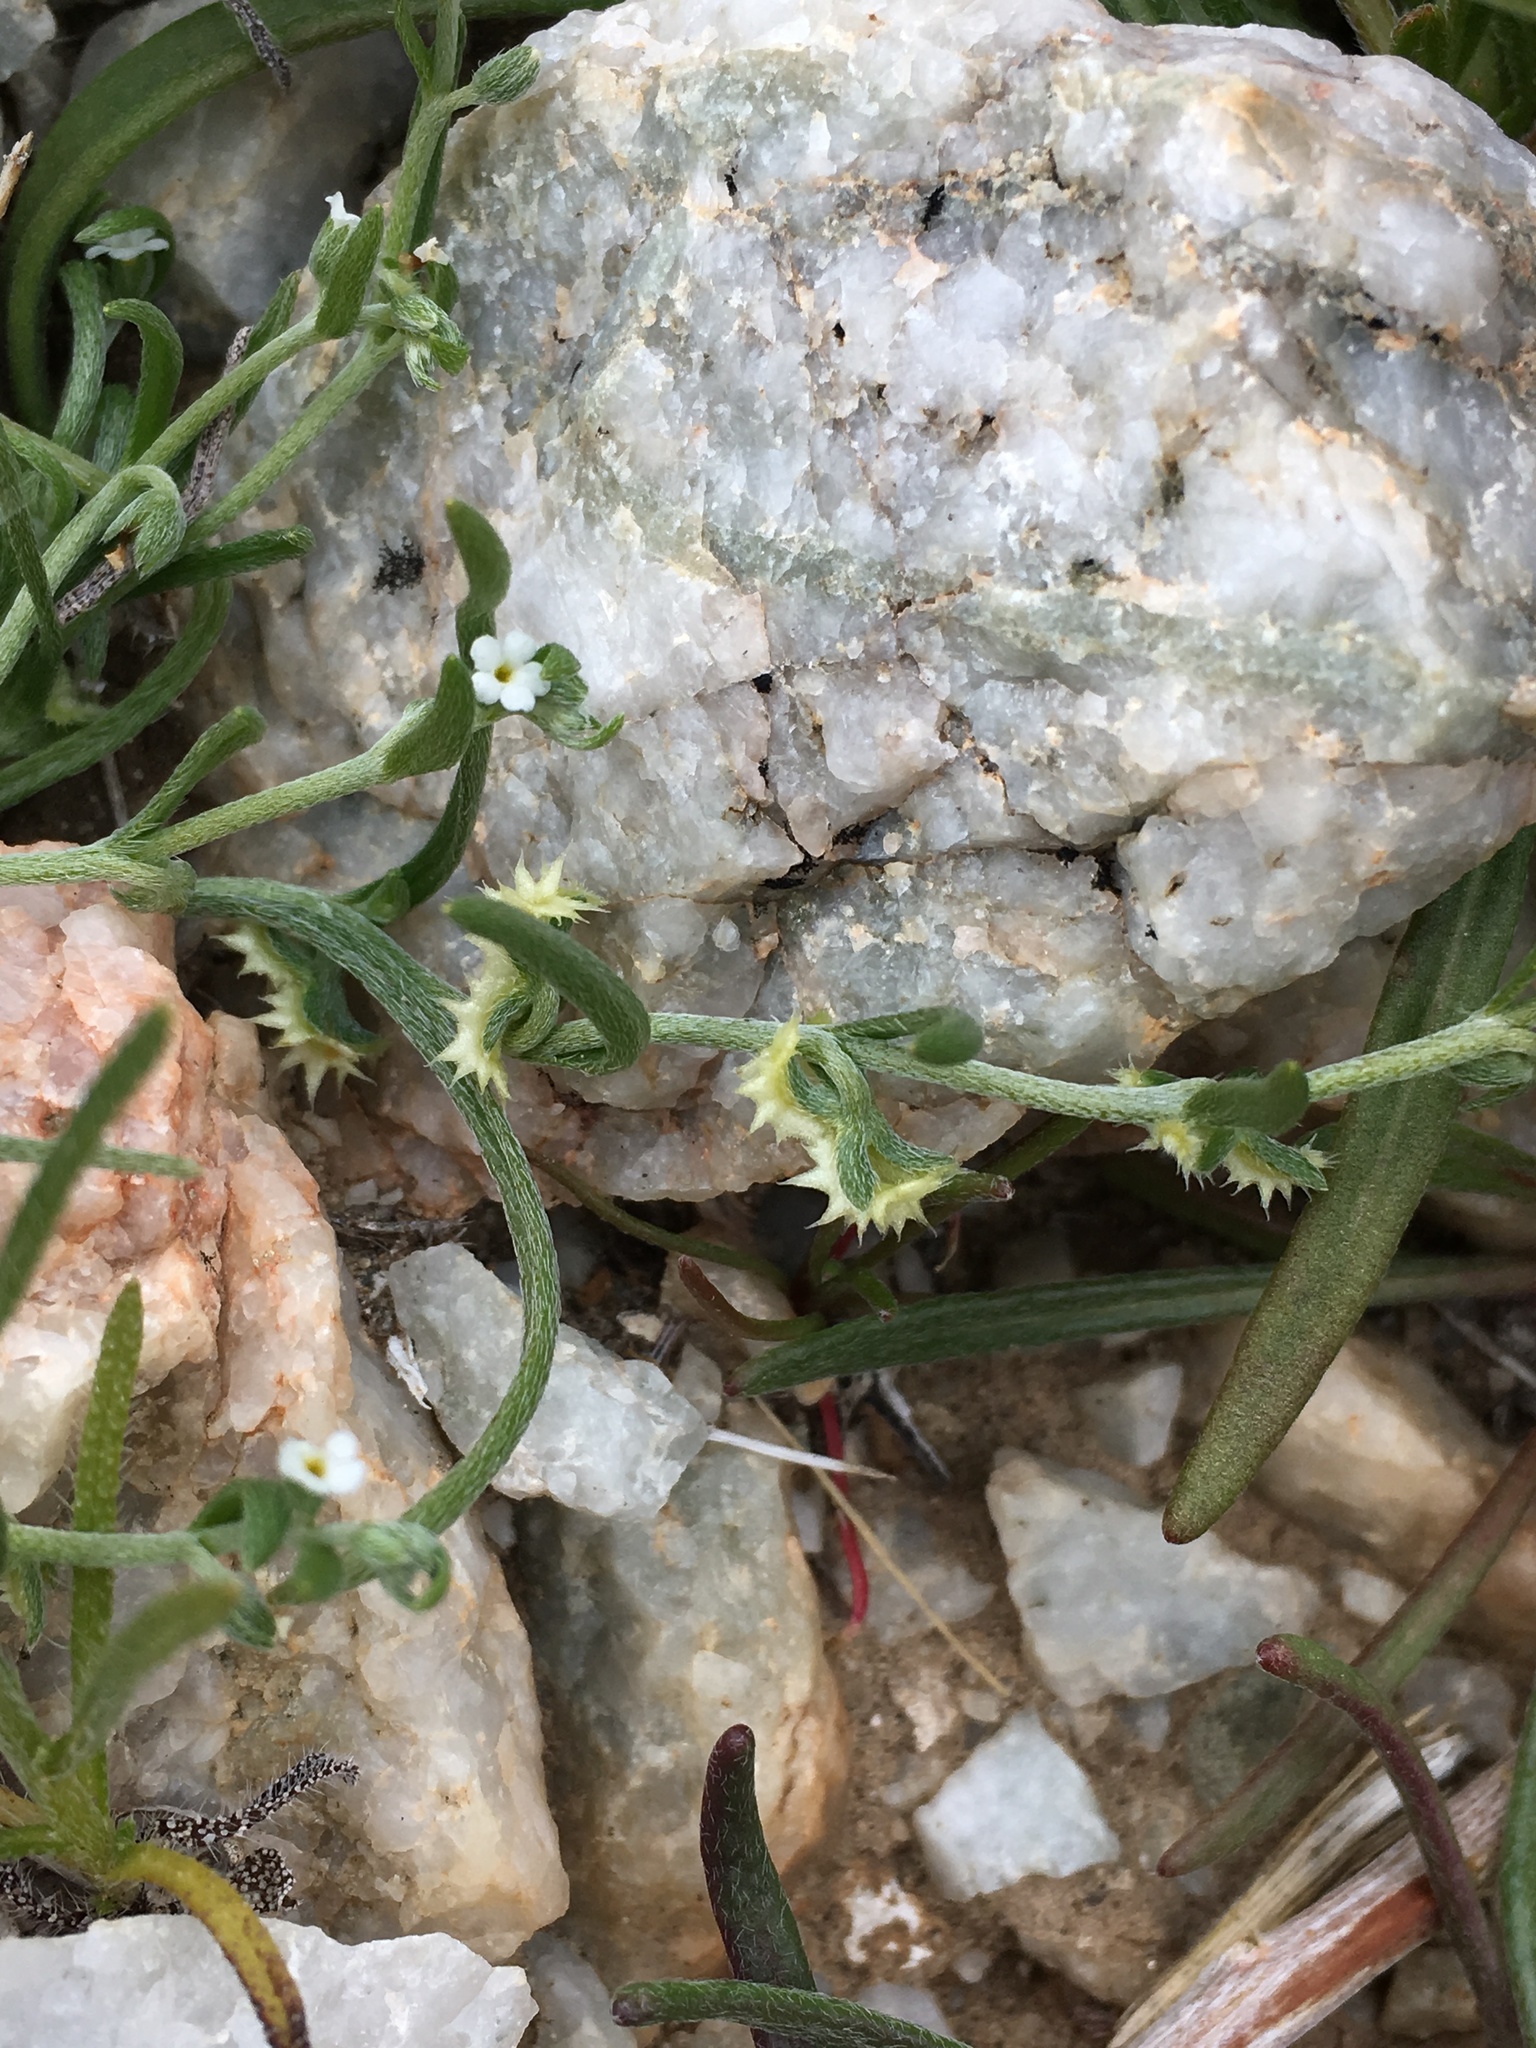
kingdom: Plantae
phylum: Tracheophyta
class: Magnoliopsida
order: Boraginales
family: Boraginaceae
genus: Pectocarya
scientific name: Pectocarya platycarpa
